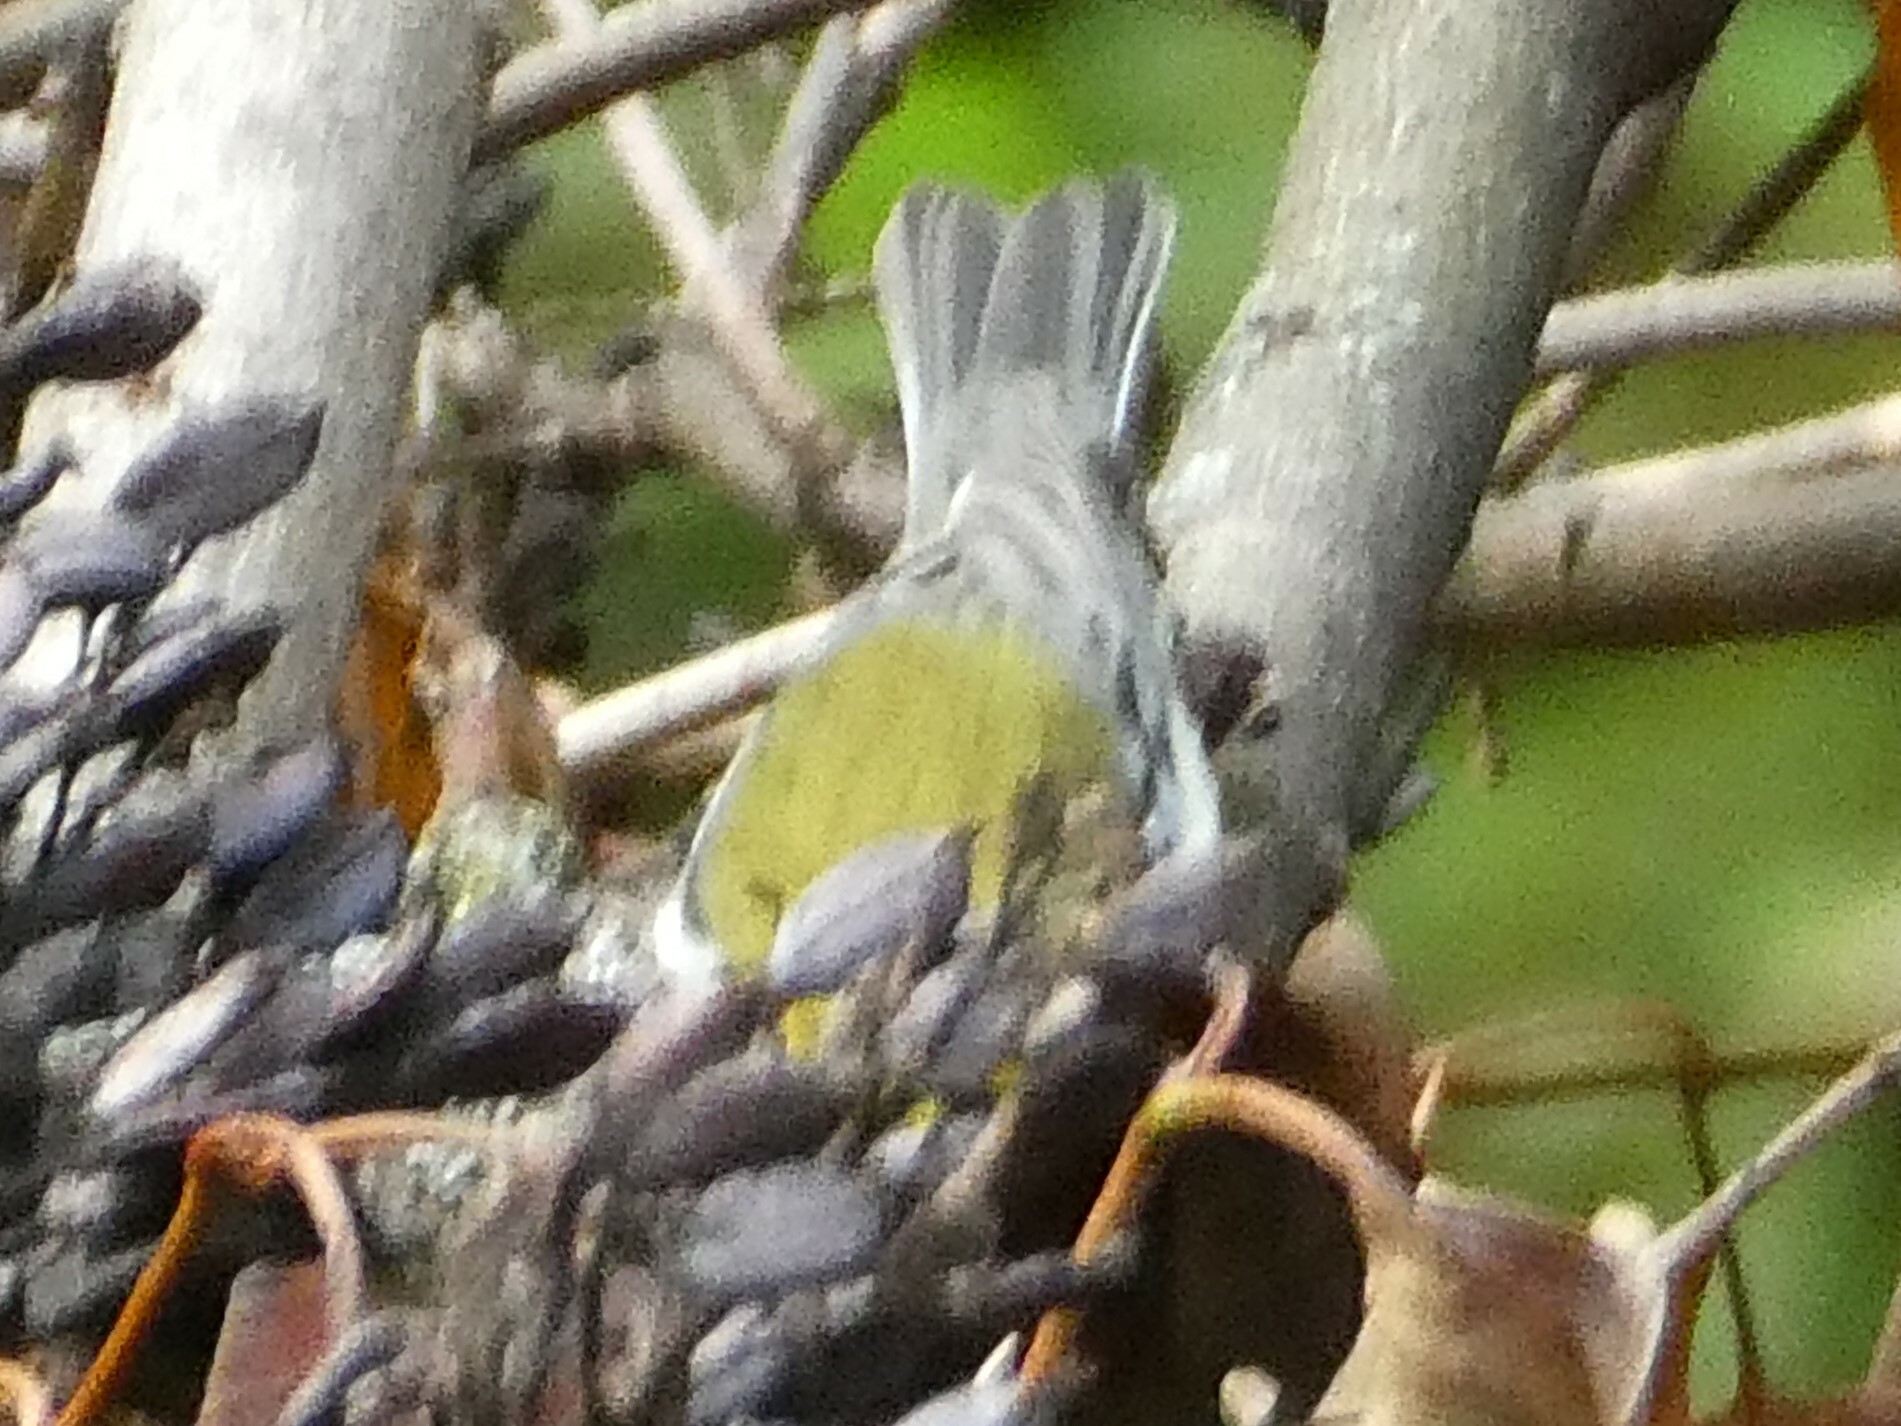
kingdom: Animalia
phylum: Chordata
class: Aves
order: Passeriformes
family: Parulidae
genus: Setophaga
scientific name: Setophaga virens
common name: Black-throated green warbler
